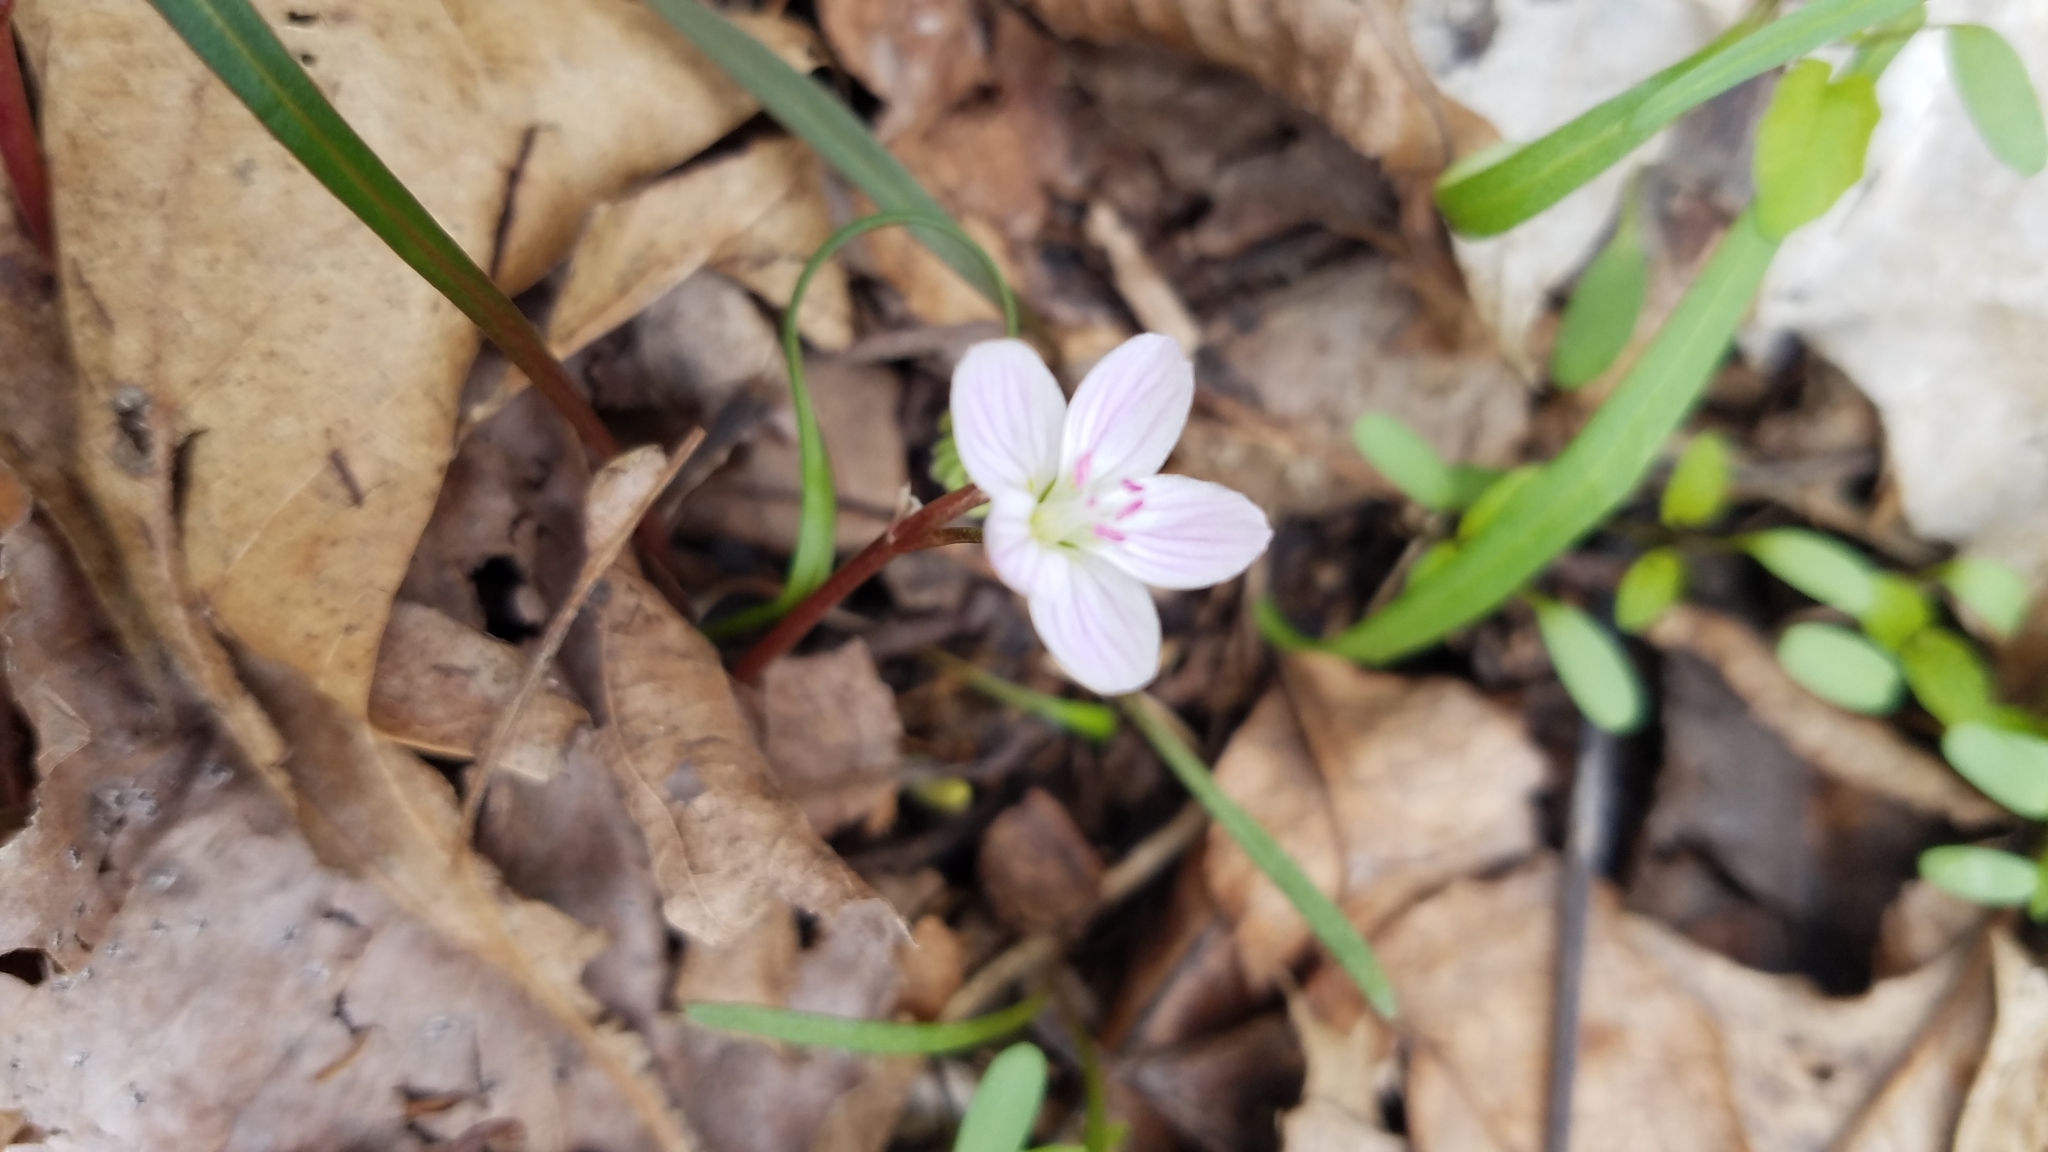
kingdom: Plantae
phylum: Tracheophyta
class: Magnoliopsida
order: Caryophyllales
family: Montiaceae
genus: Claytonia
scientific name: Claytonia virginica
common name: Virginia springbeauty
